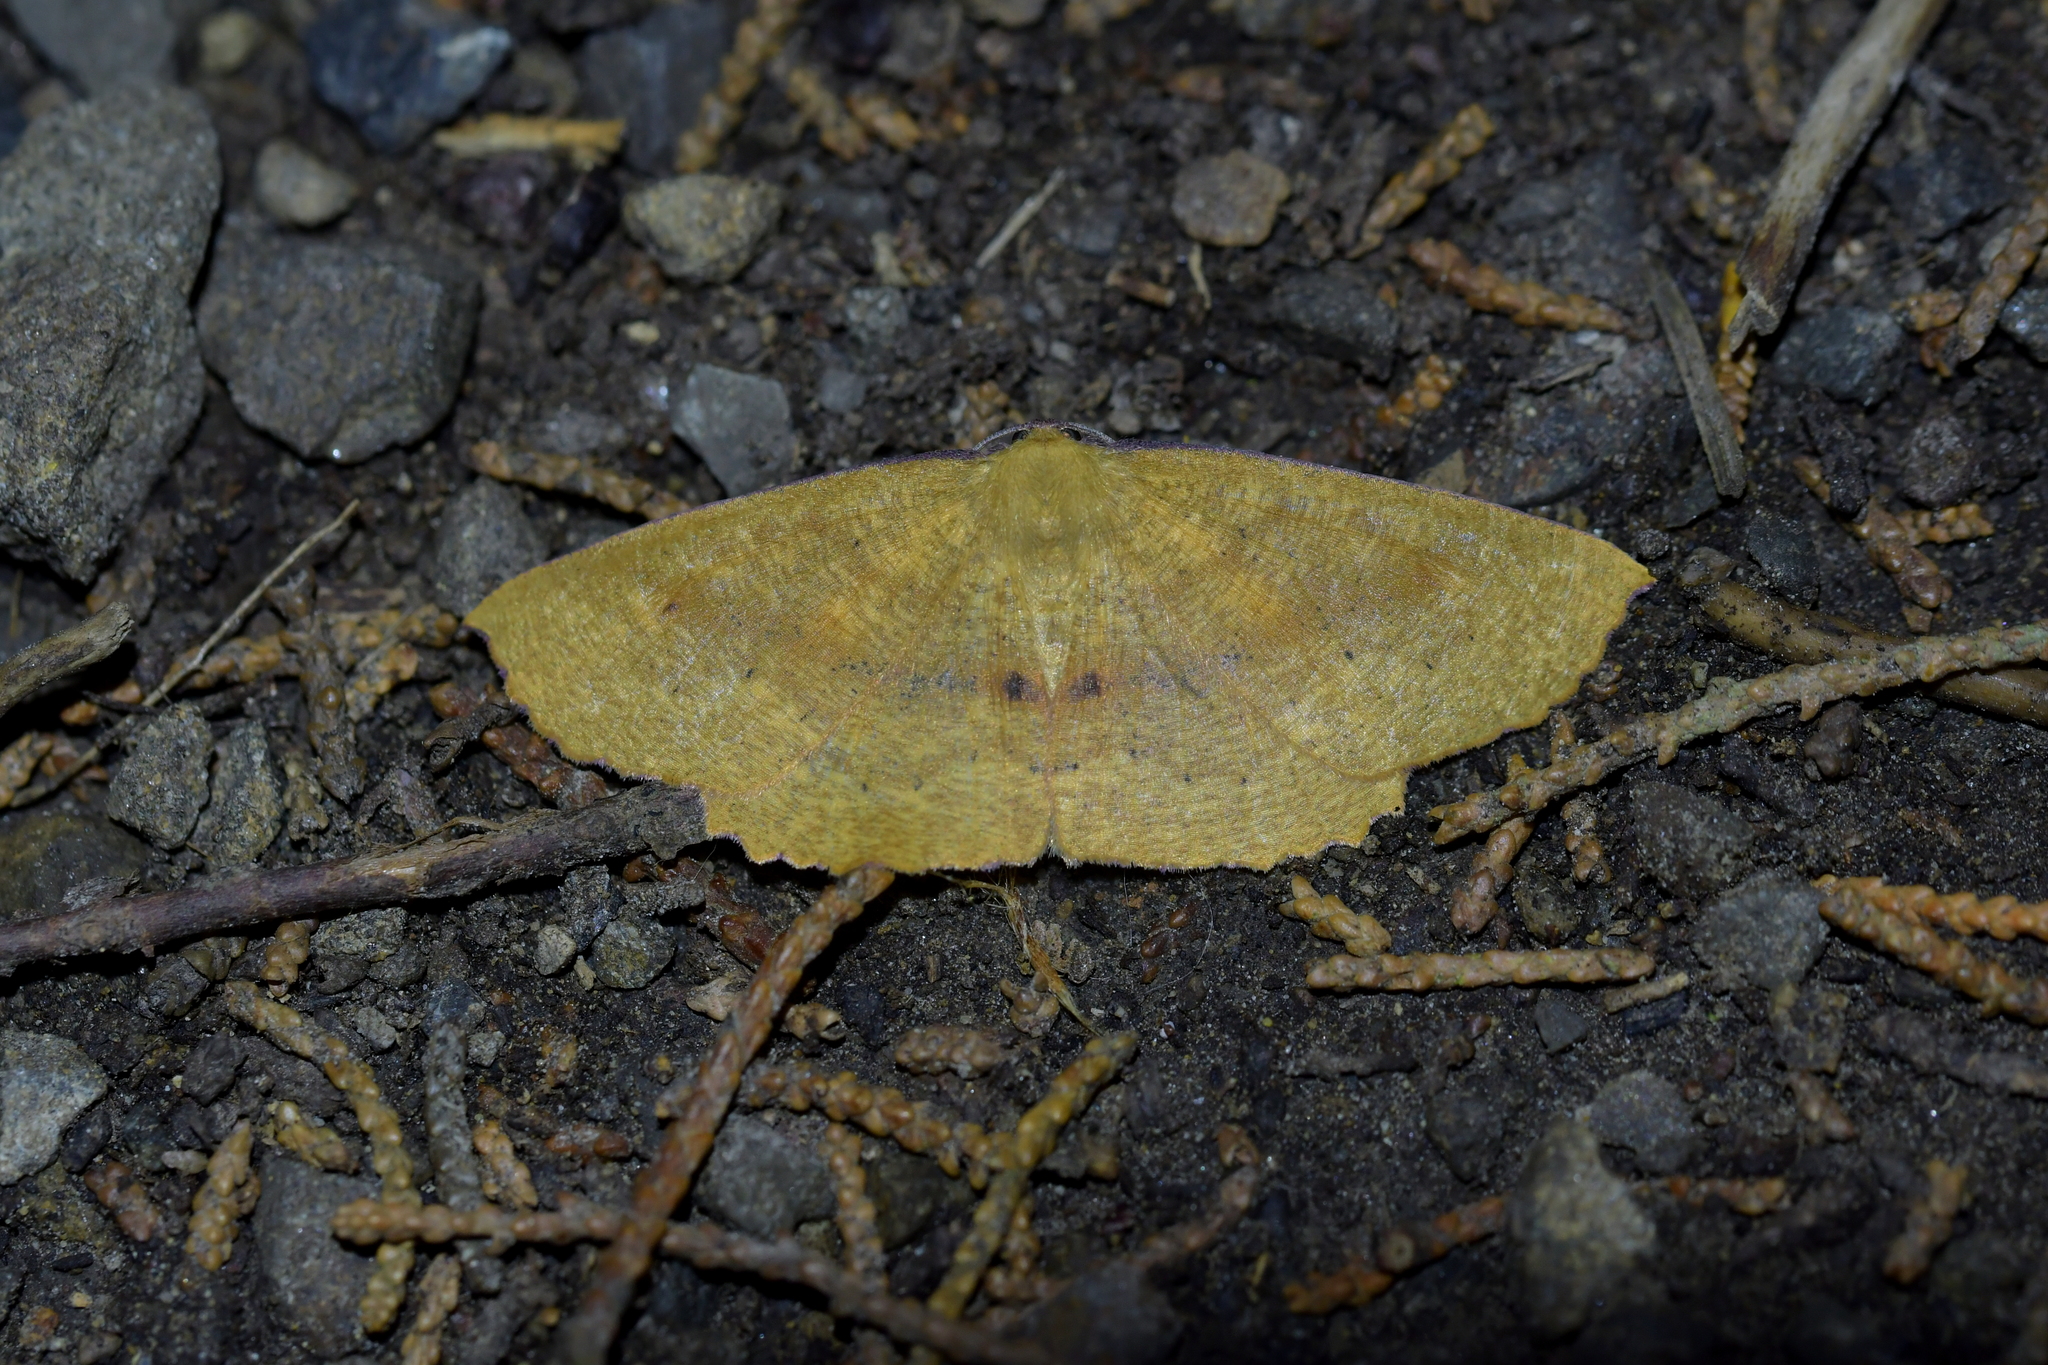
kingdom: Animalia
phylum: Arthropoda
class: Insecta
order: Lepidoptera
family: Geometridae
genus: Xyridacma
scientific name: Xyridacma ustaria
